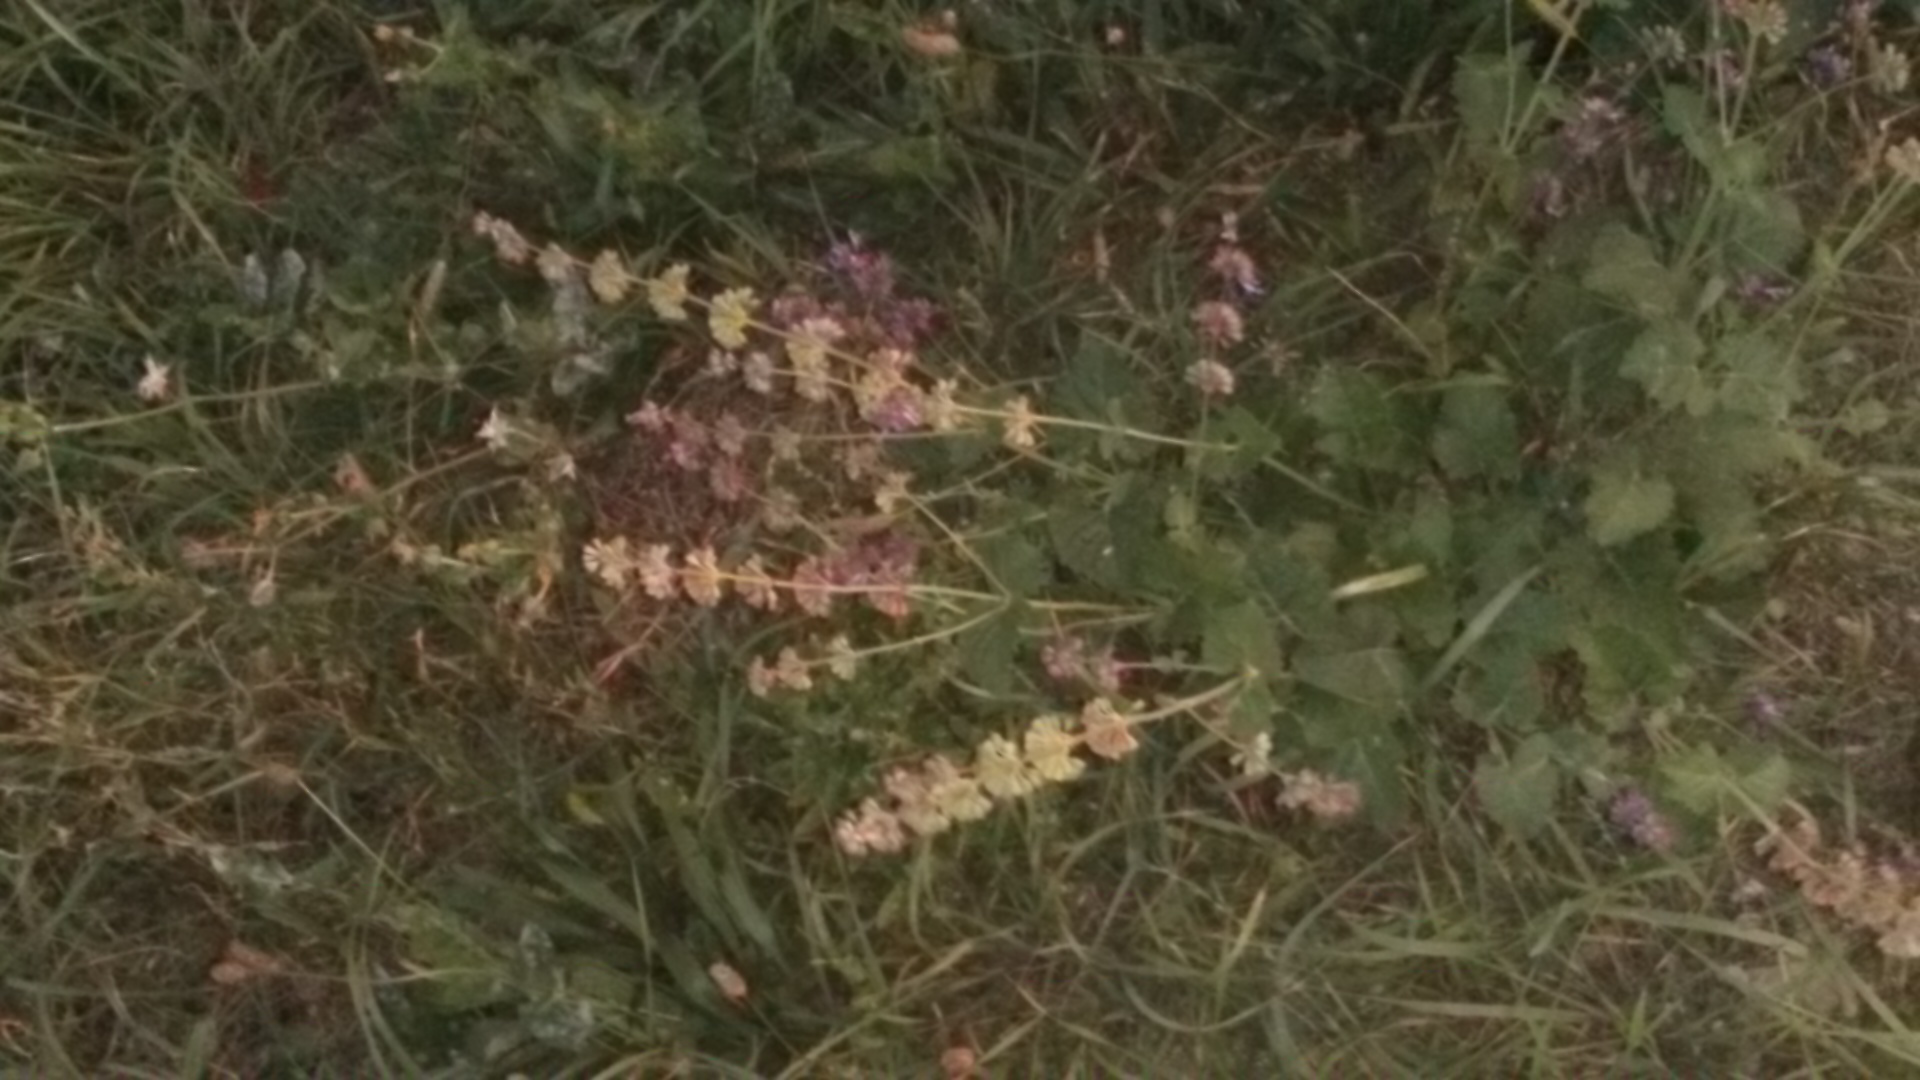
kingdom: Plantae
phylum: Tracheophyta
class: Magnoliopsida
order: Lamiales
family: Lamiaceae
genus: Salvia
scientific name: Salvia verticillata
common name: Whorled clary
